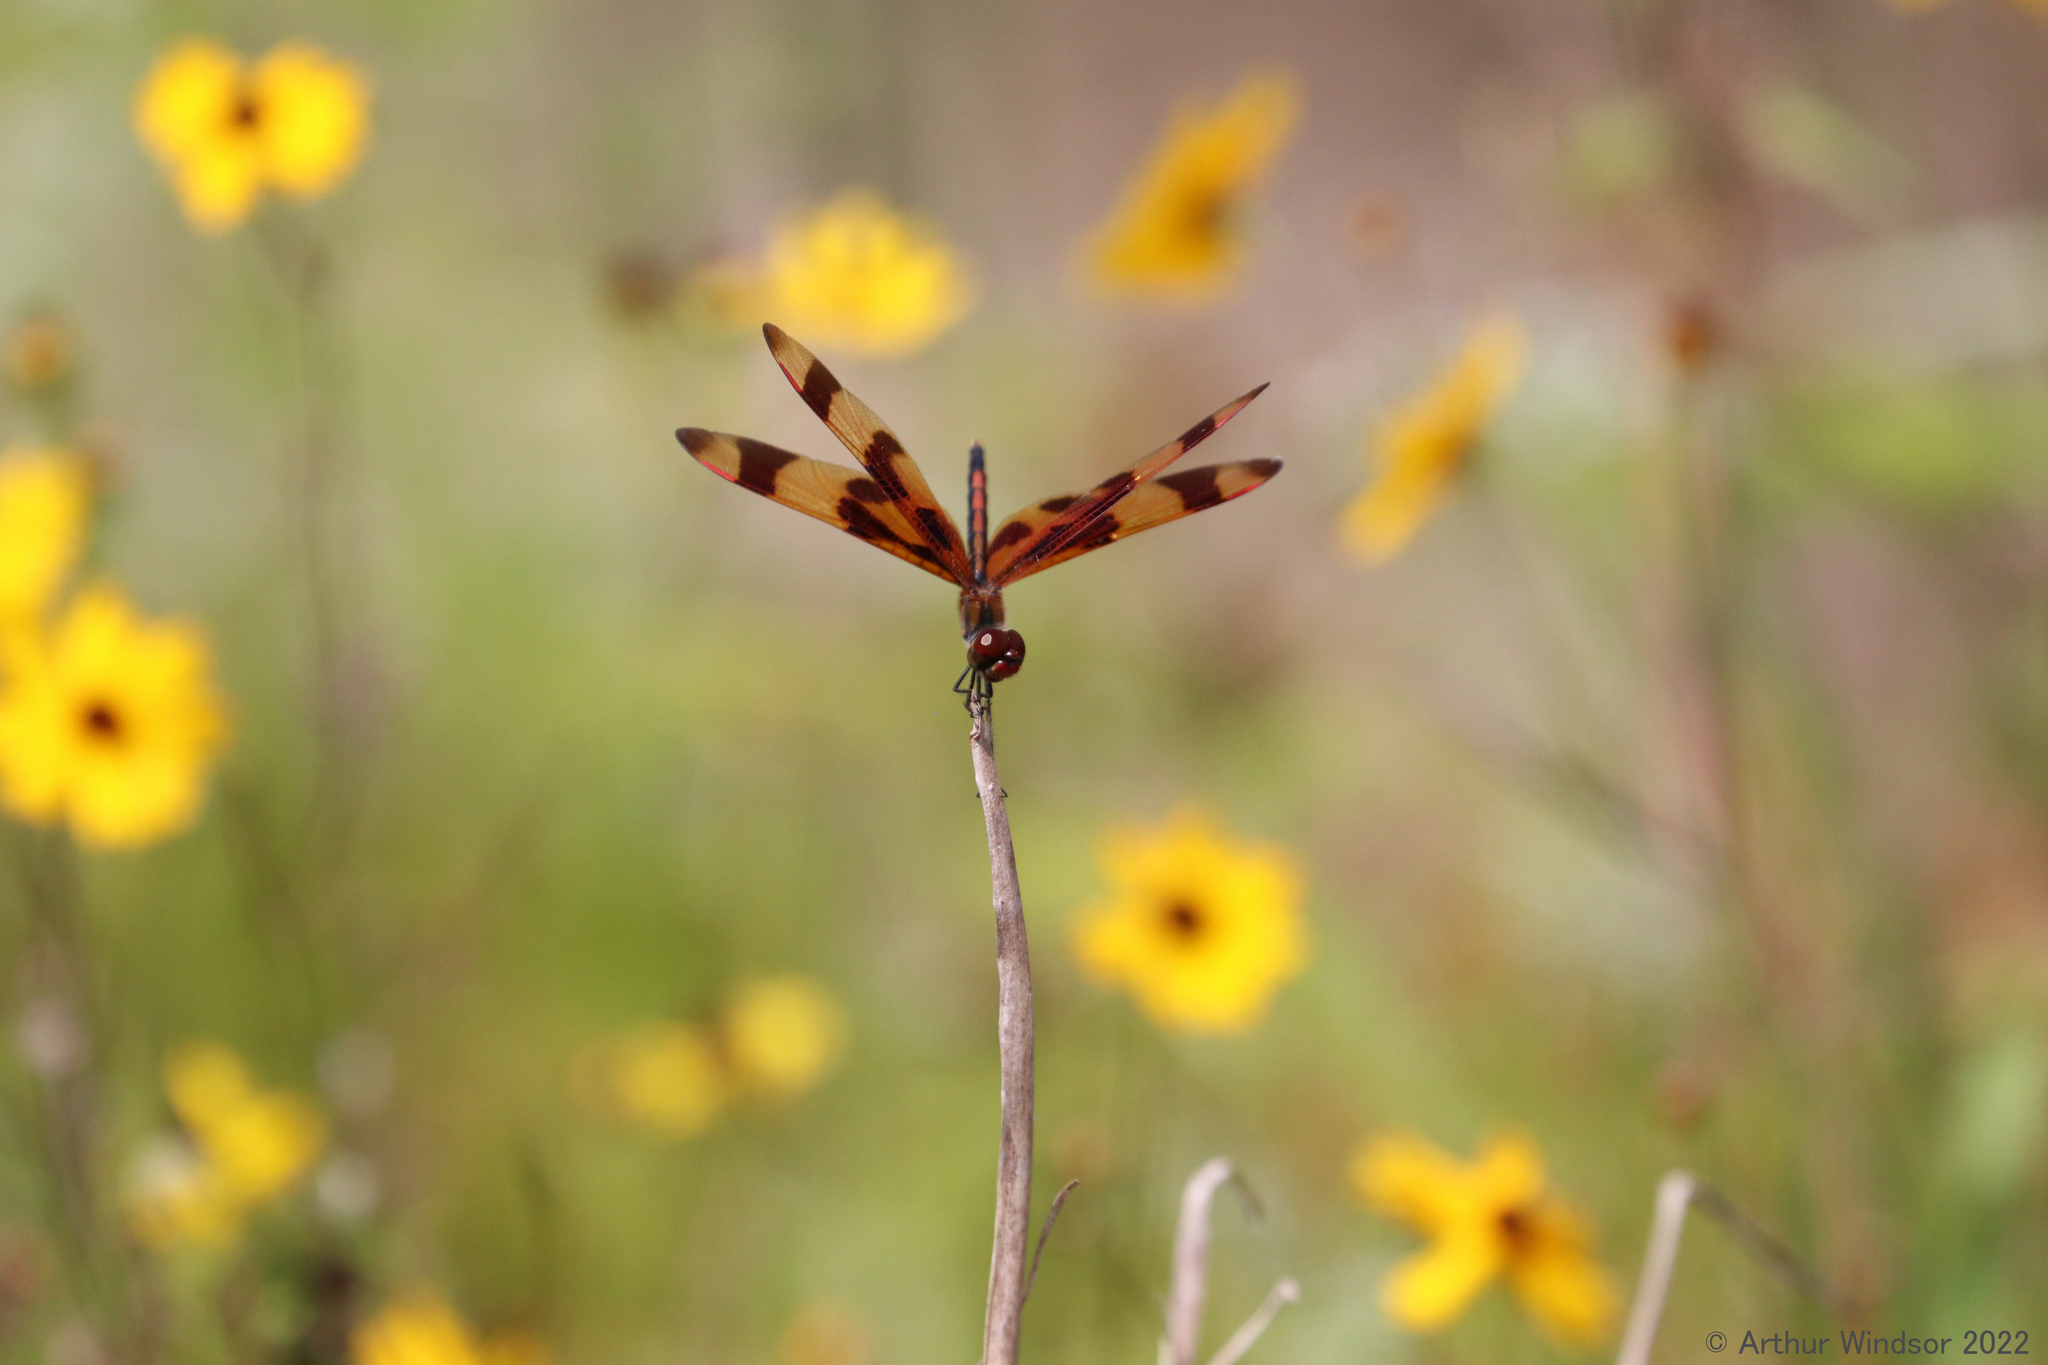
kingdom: Animalia
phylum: Arthropoda
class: Insecta
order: Odonata
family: Libellulidae
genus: Celithemis
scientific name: Celithemis eponina
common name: Halloween pennant
